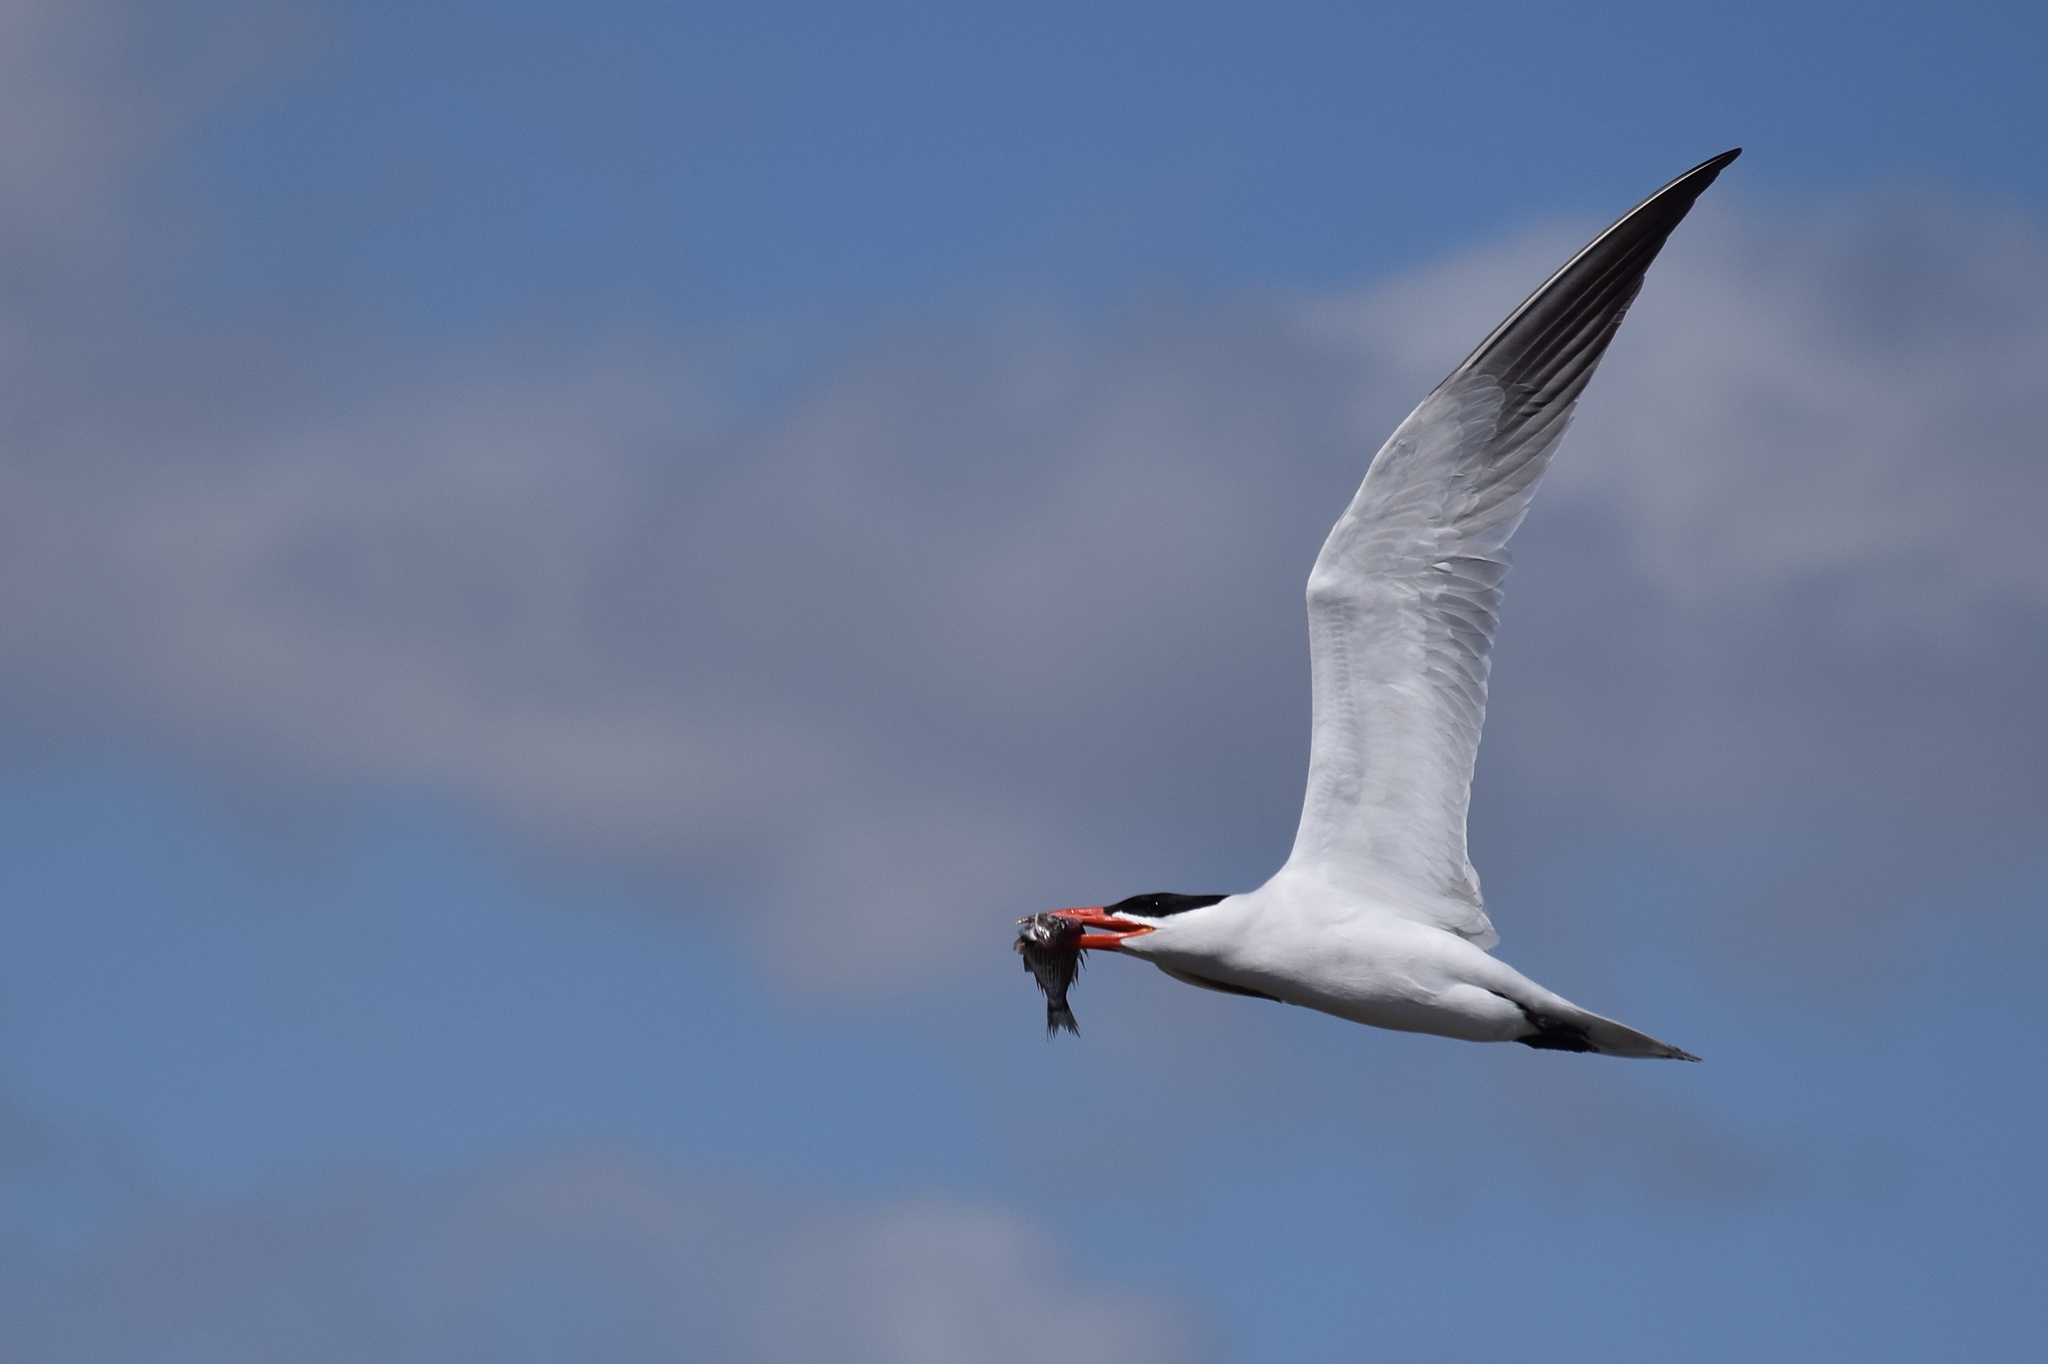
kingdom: Animalia
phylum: Chordata
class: Aves
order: Charadriiformes
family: Laridae
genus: Hydroprogne
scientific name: Hydroprogne caspia
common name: Caspian tern
